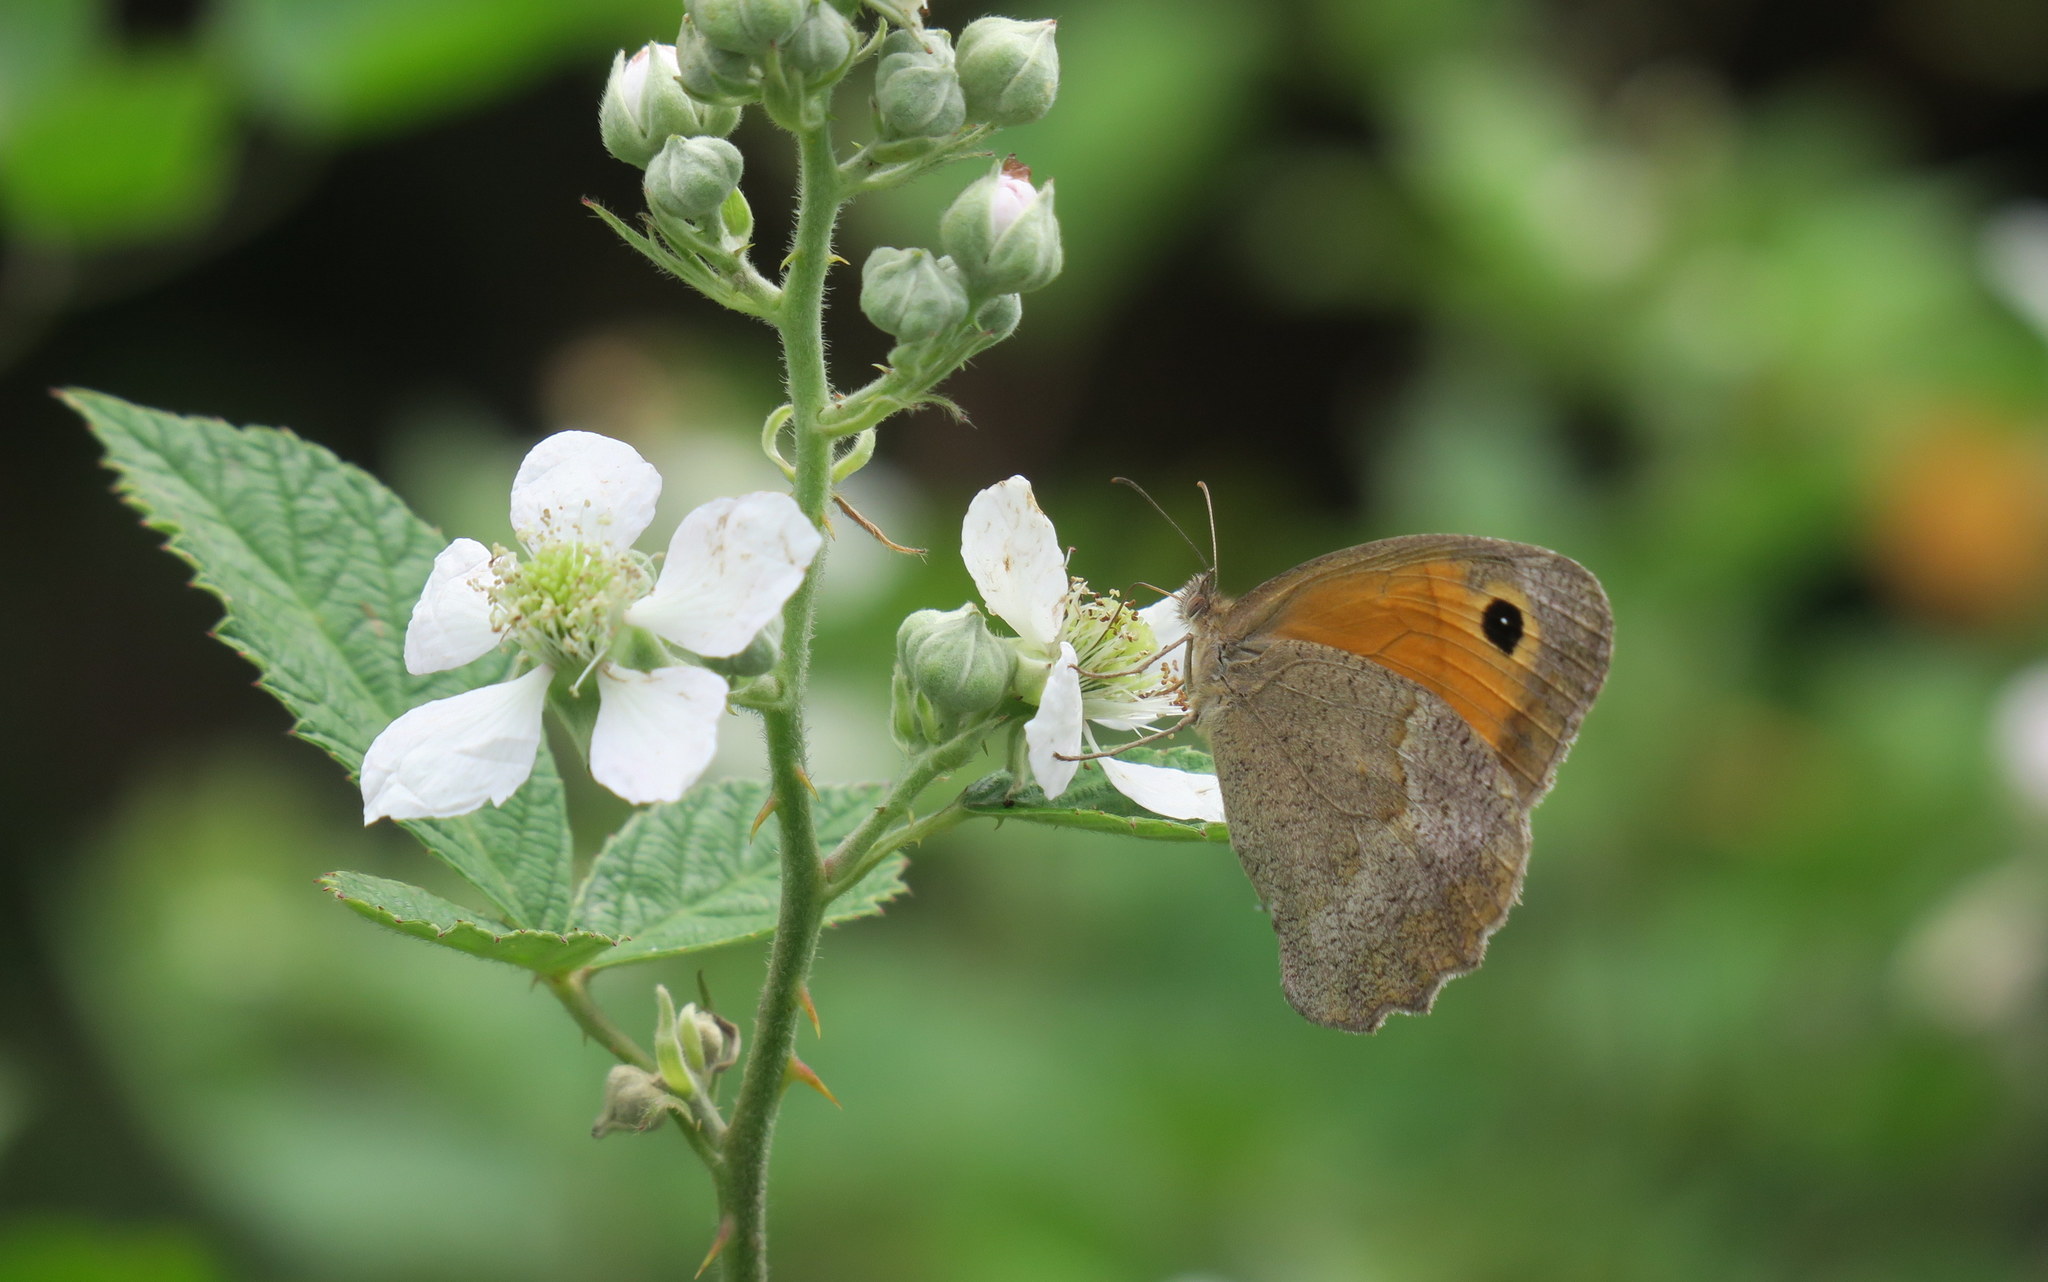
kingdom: Animalia
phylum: Arthropoda
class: Insecta
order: Lepidoptera
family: Nymphalidae
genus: Maniola
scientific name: Maniola jurtina
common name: Meadow brown
